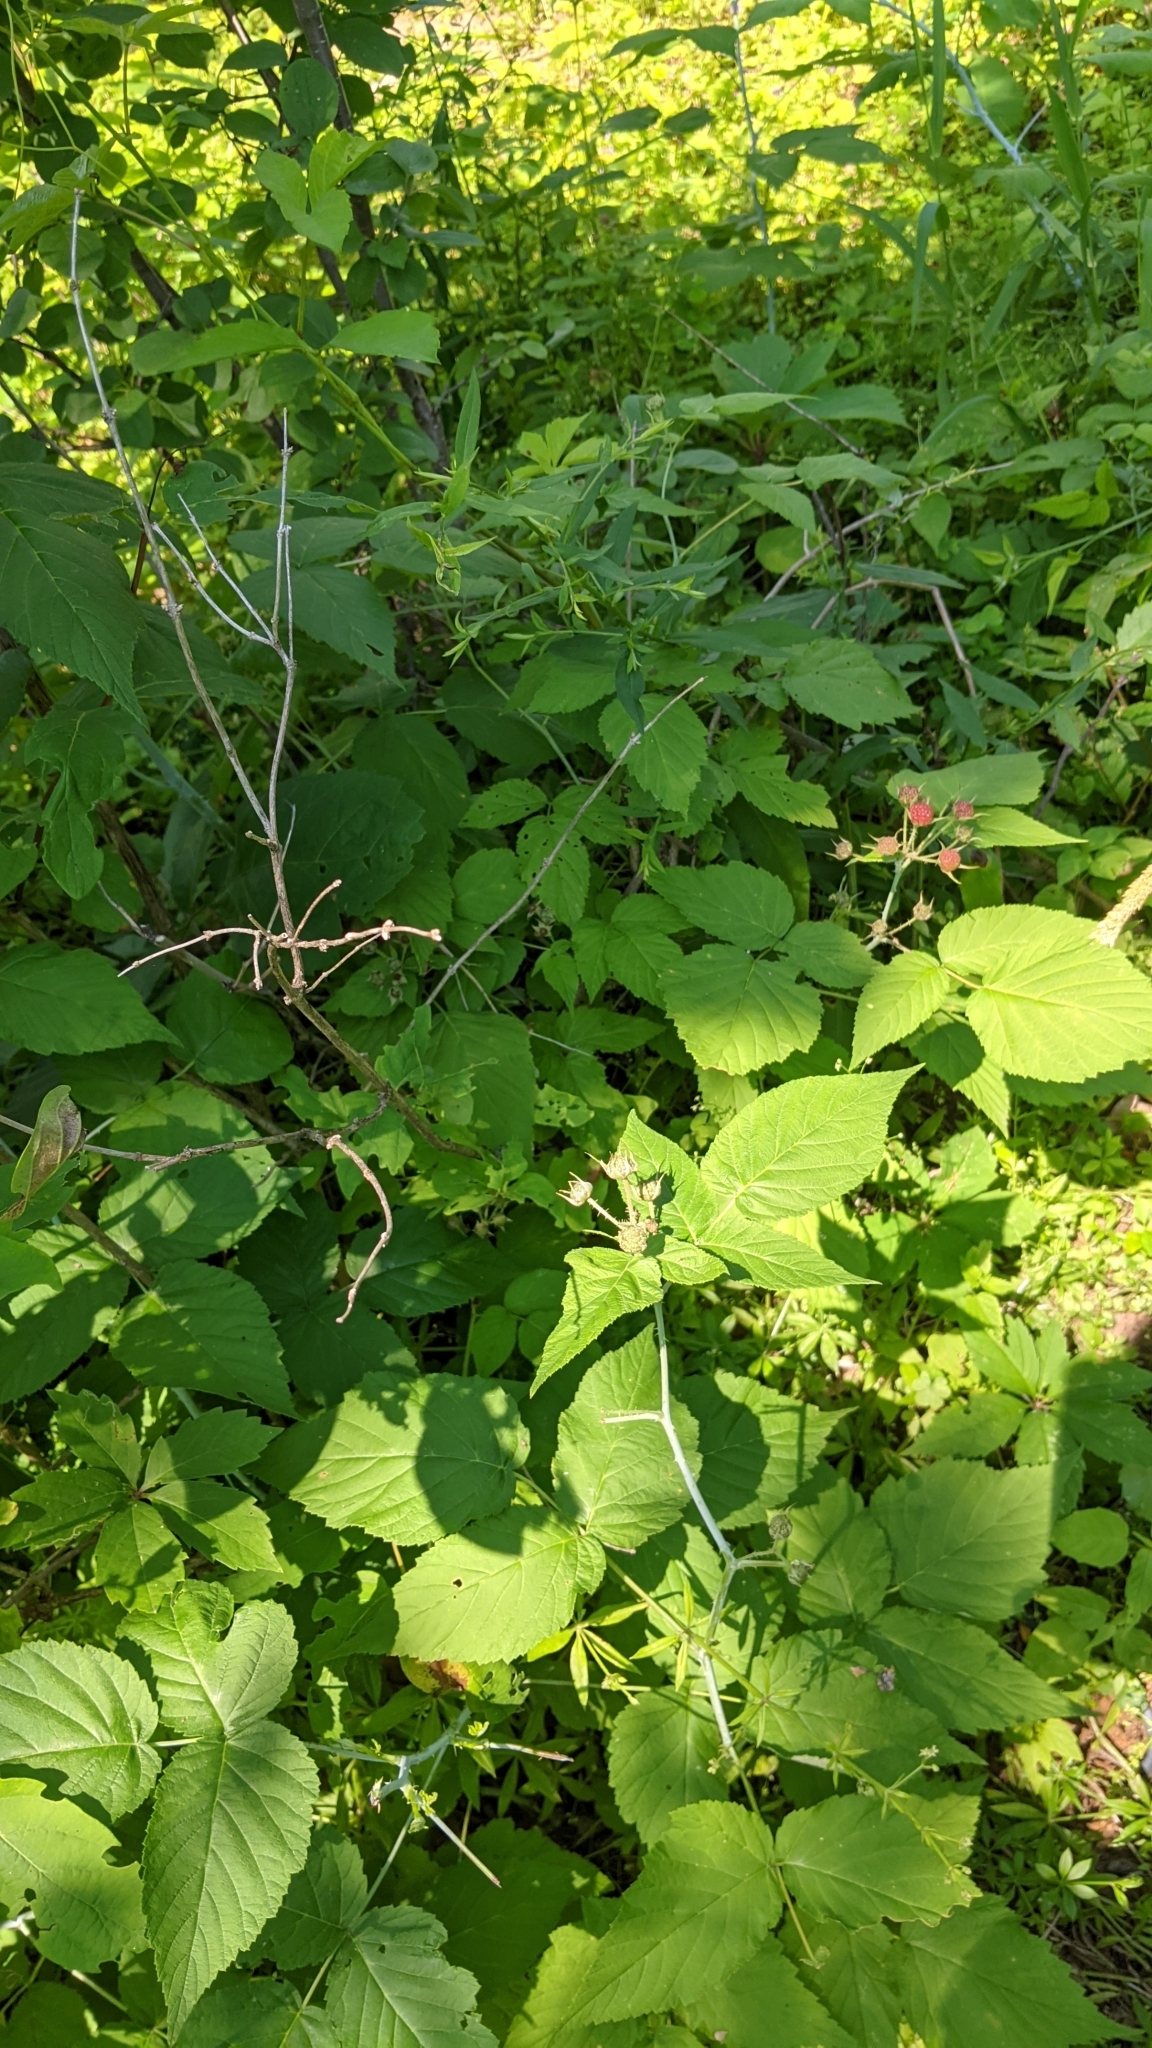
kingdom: Plantae
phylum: Tracheophyta
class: Magnoliopsida
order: Rosales
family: Rosaceae
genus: Rubus
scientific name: Rubus occidentalis
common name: Black raspberry
